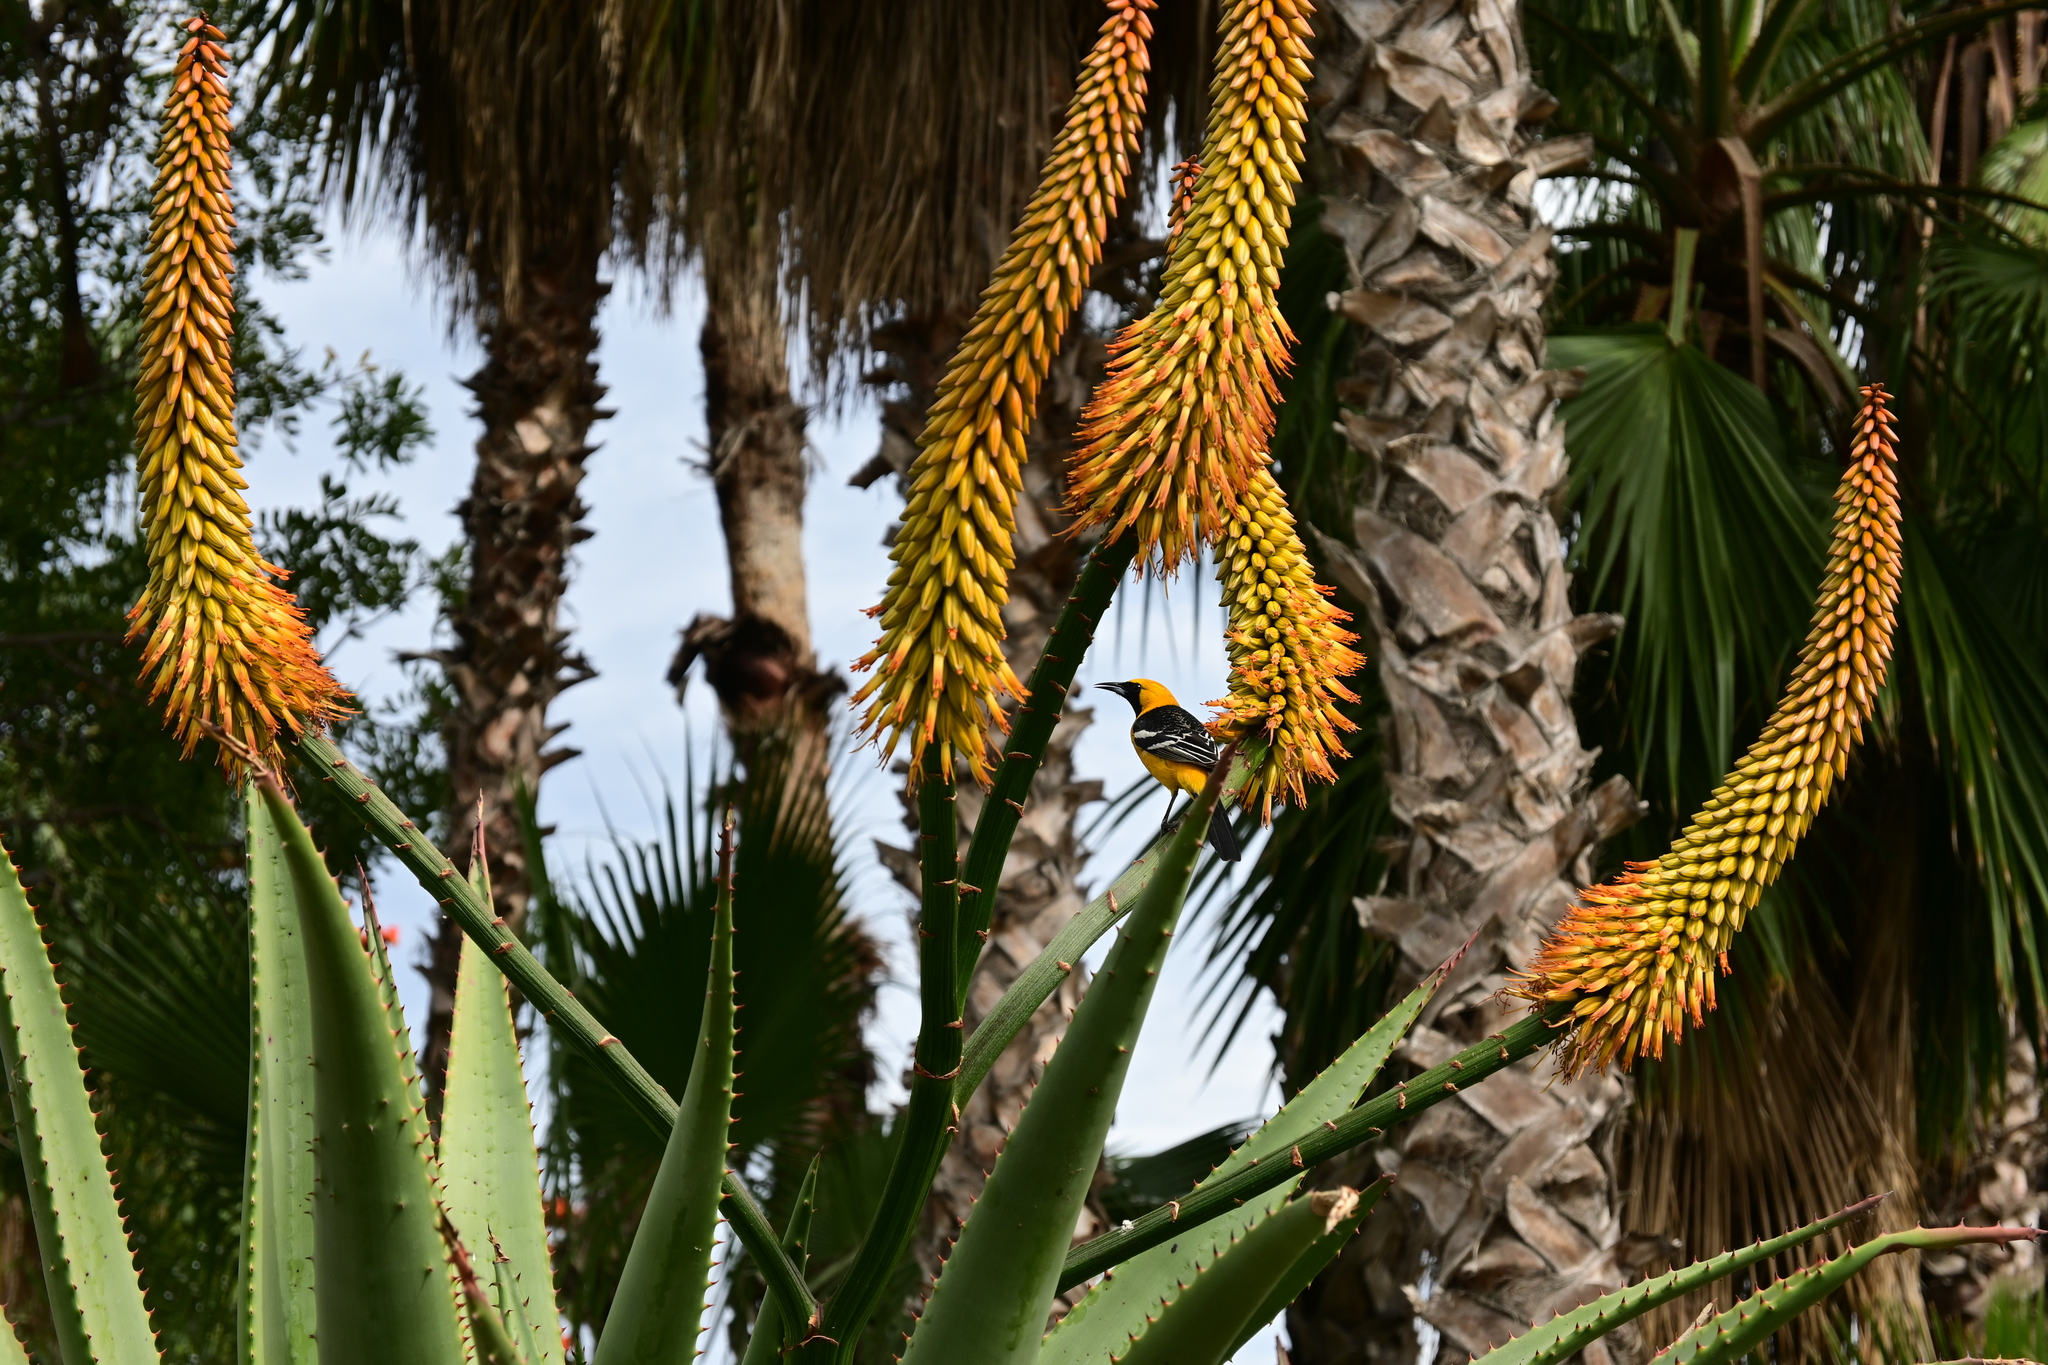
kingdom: Animalia
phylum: Chordata
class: Aves
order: Passeriformes
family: Icteridae
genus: Icterus
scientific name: Icterus cucullatus
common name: Hooded oriole
